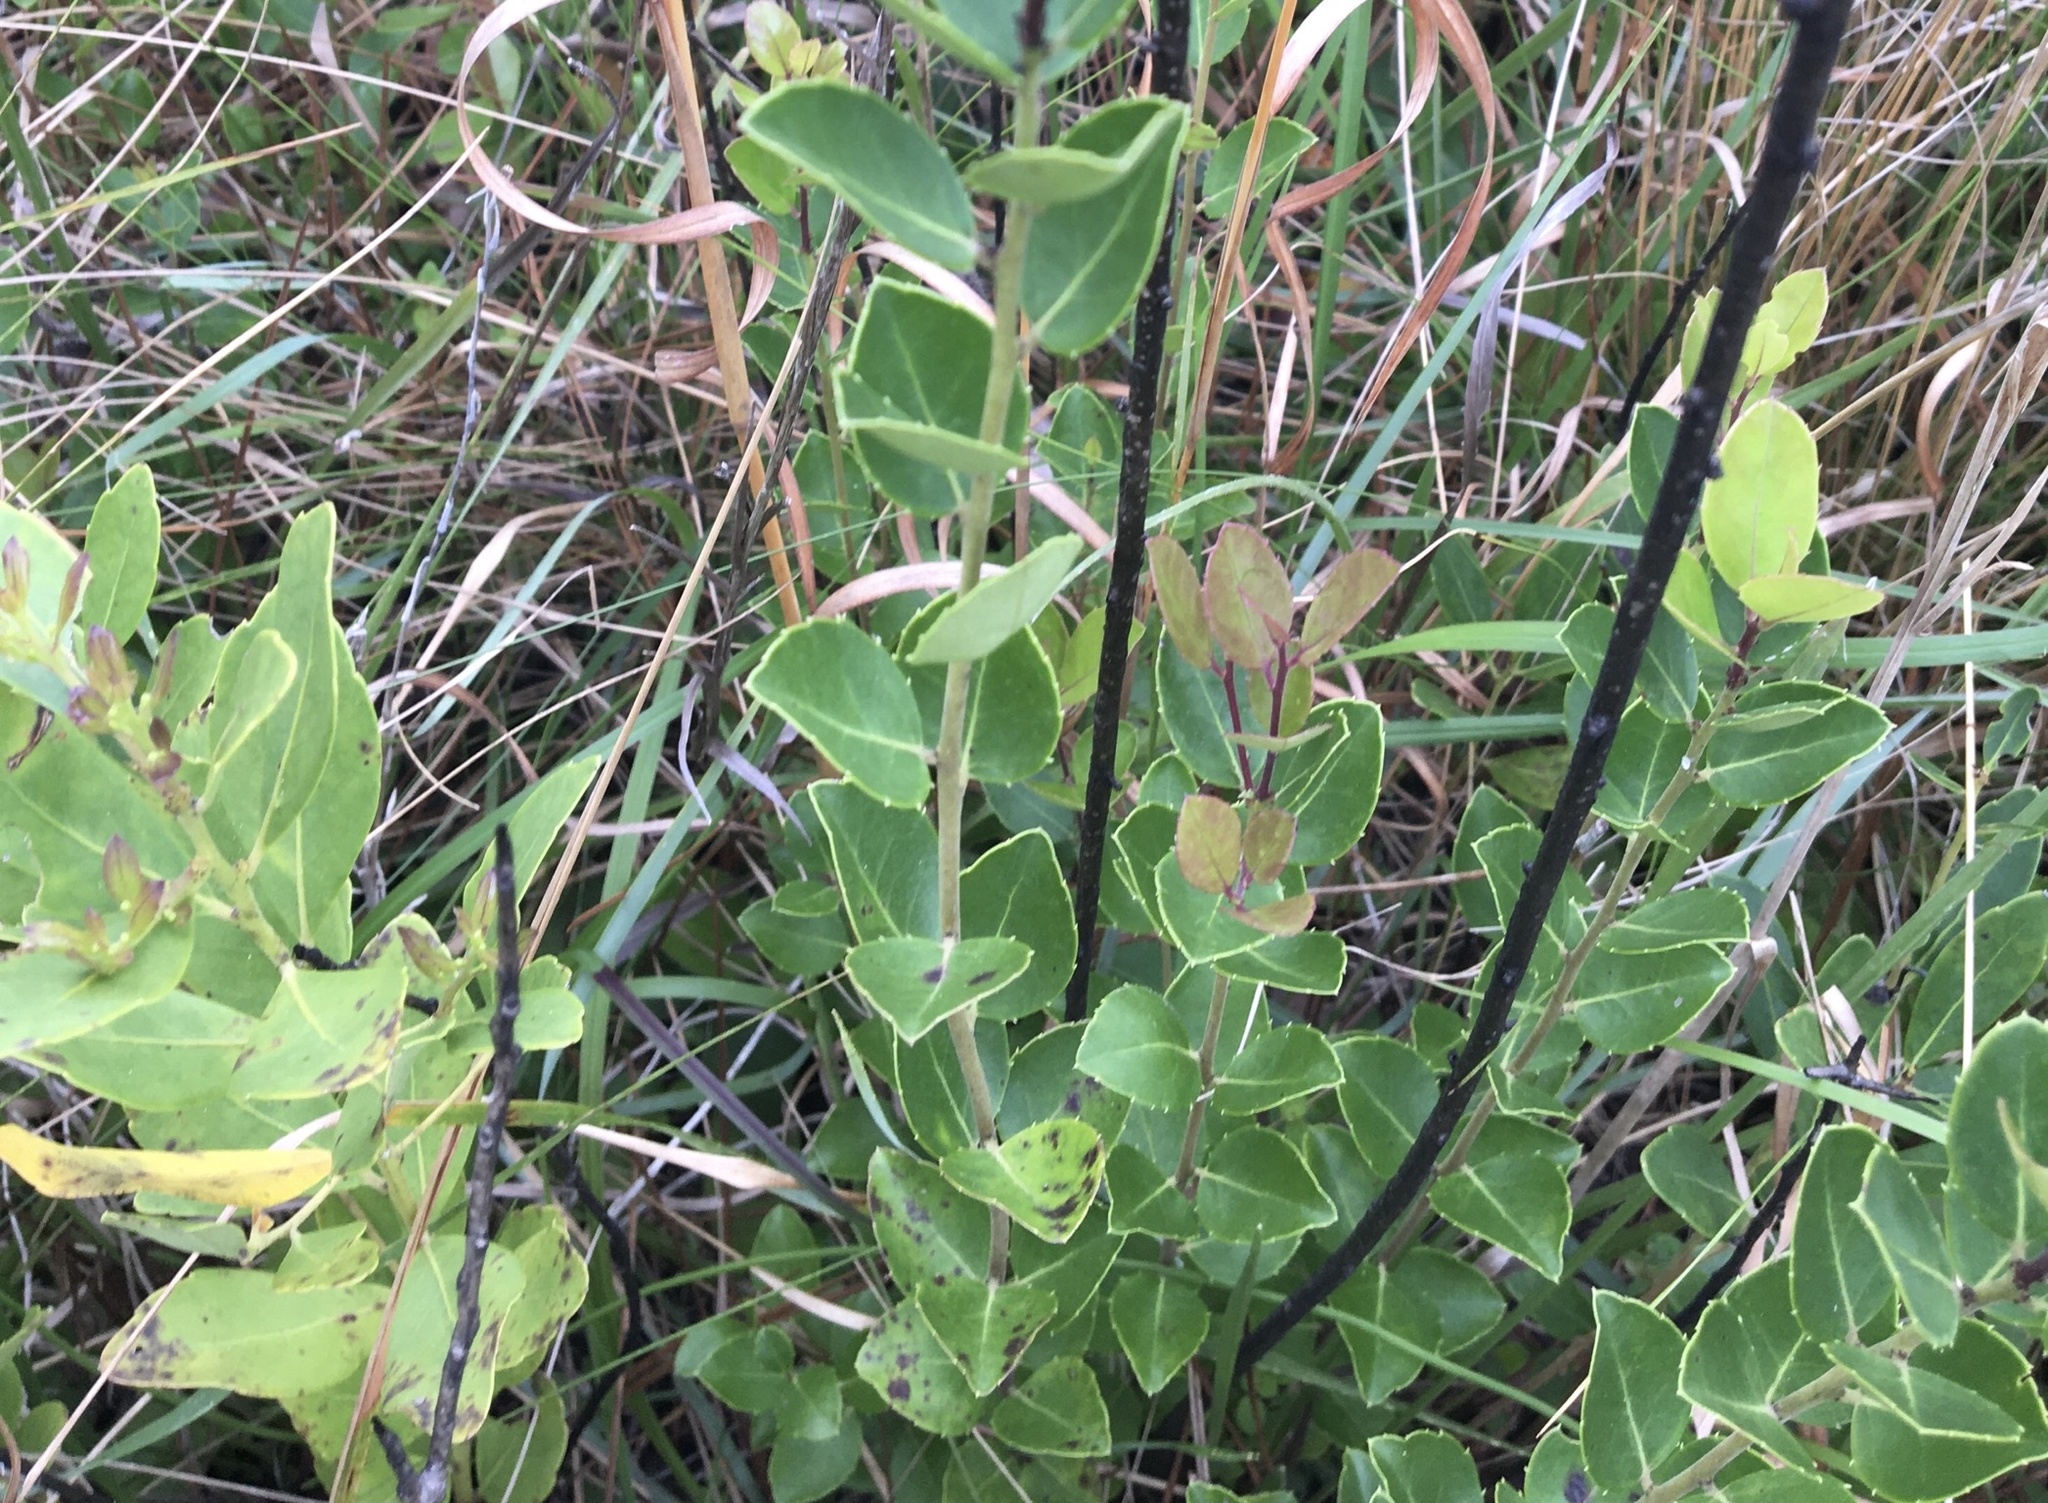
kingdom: Plantae
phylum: Tracheophyta
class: Magnoliopsida
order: Aquifoliales
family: Aquifoliaceae
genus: Ilex
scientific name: Ilex coriacea
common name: Sweet gallberry
